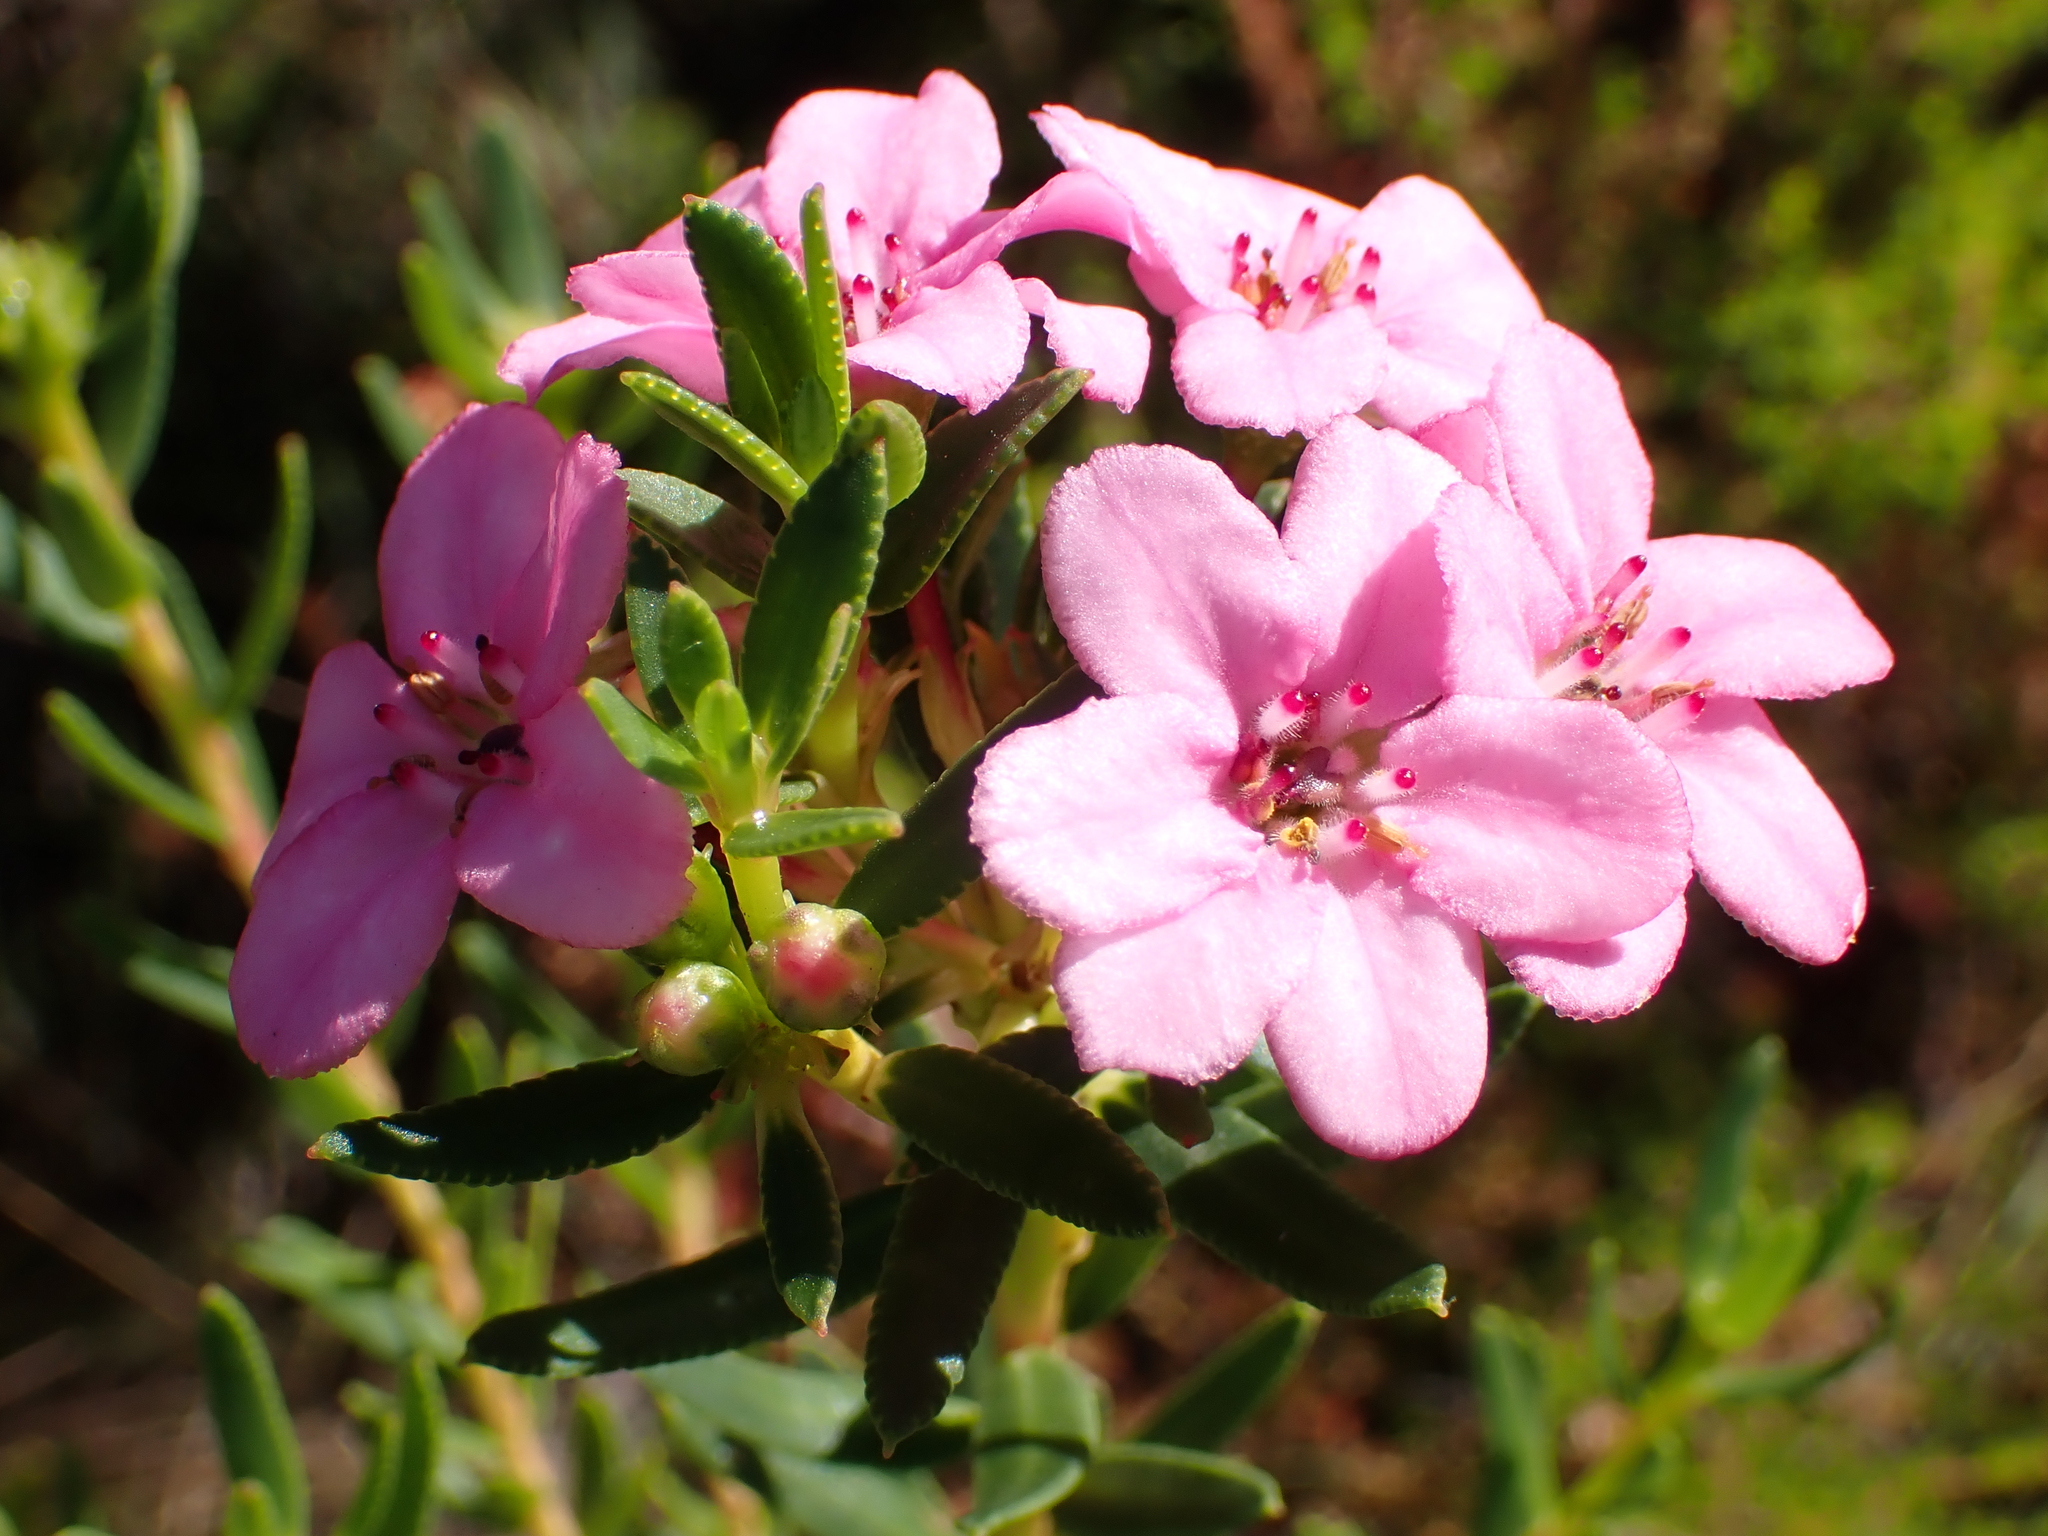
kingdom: Plantae
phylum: Tracheophyta
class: Magnoliopsida
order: Sapindales
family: Rutaceae
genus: Adenandra
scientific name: Adenandra fragrans
